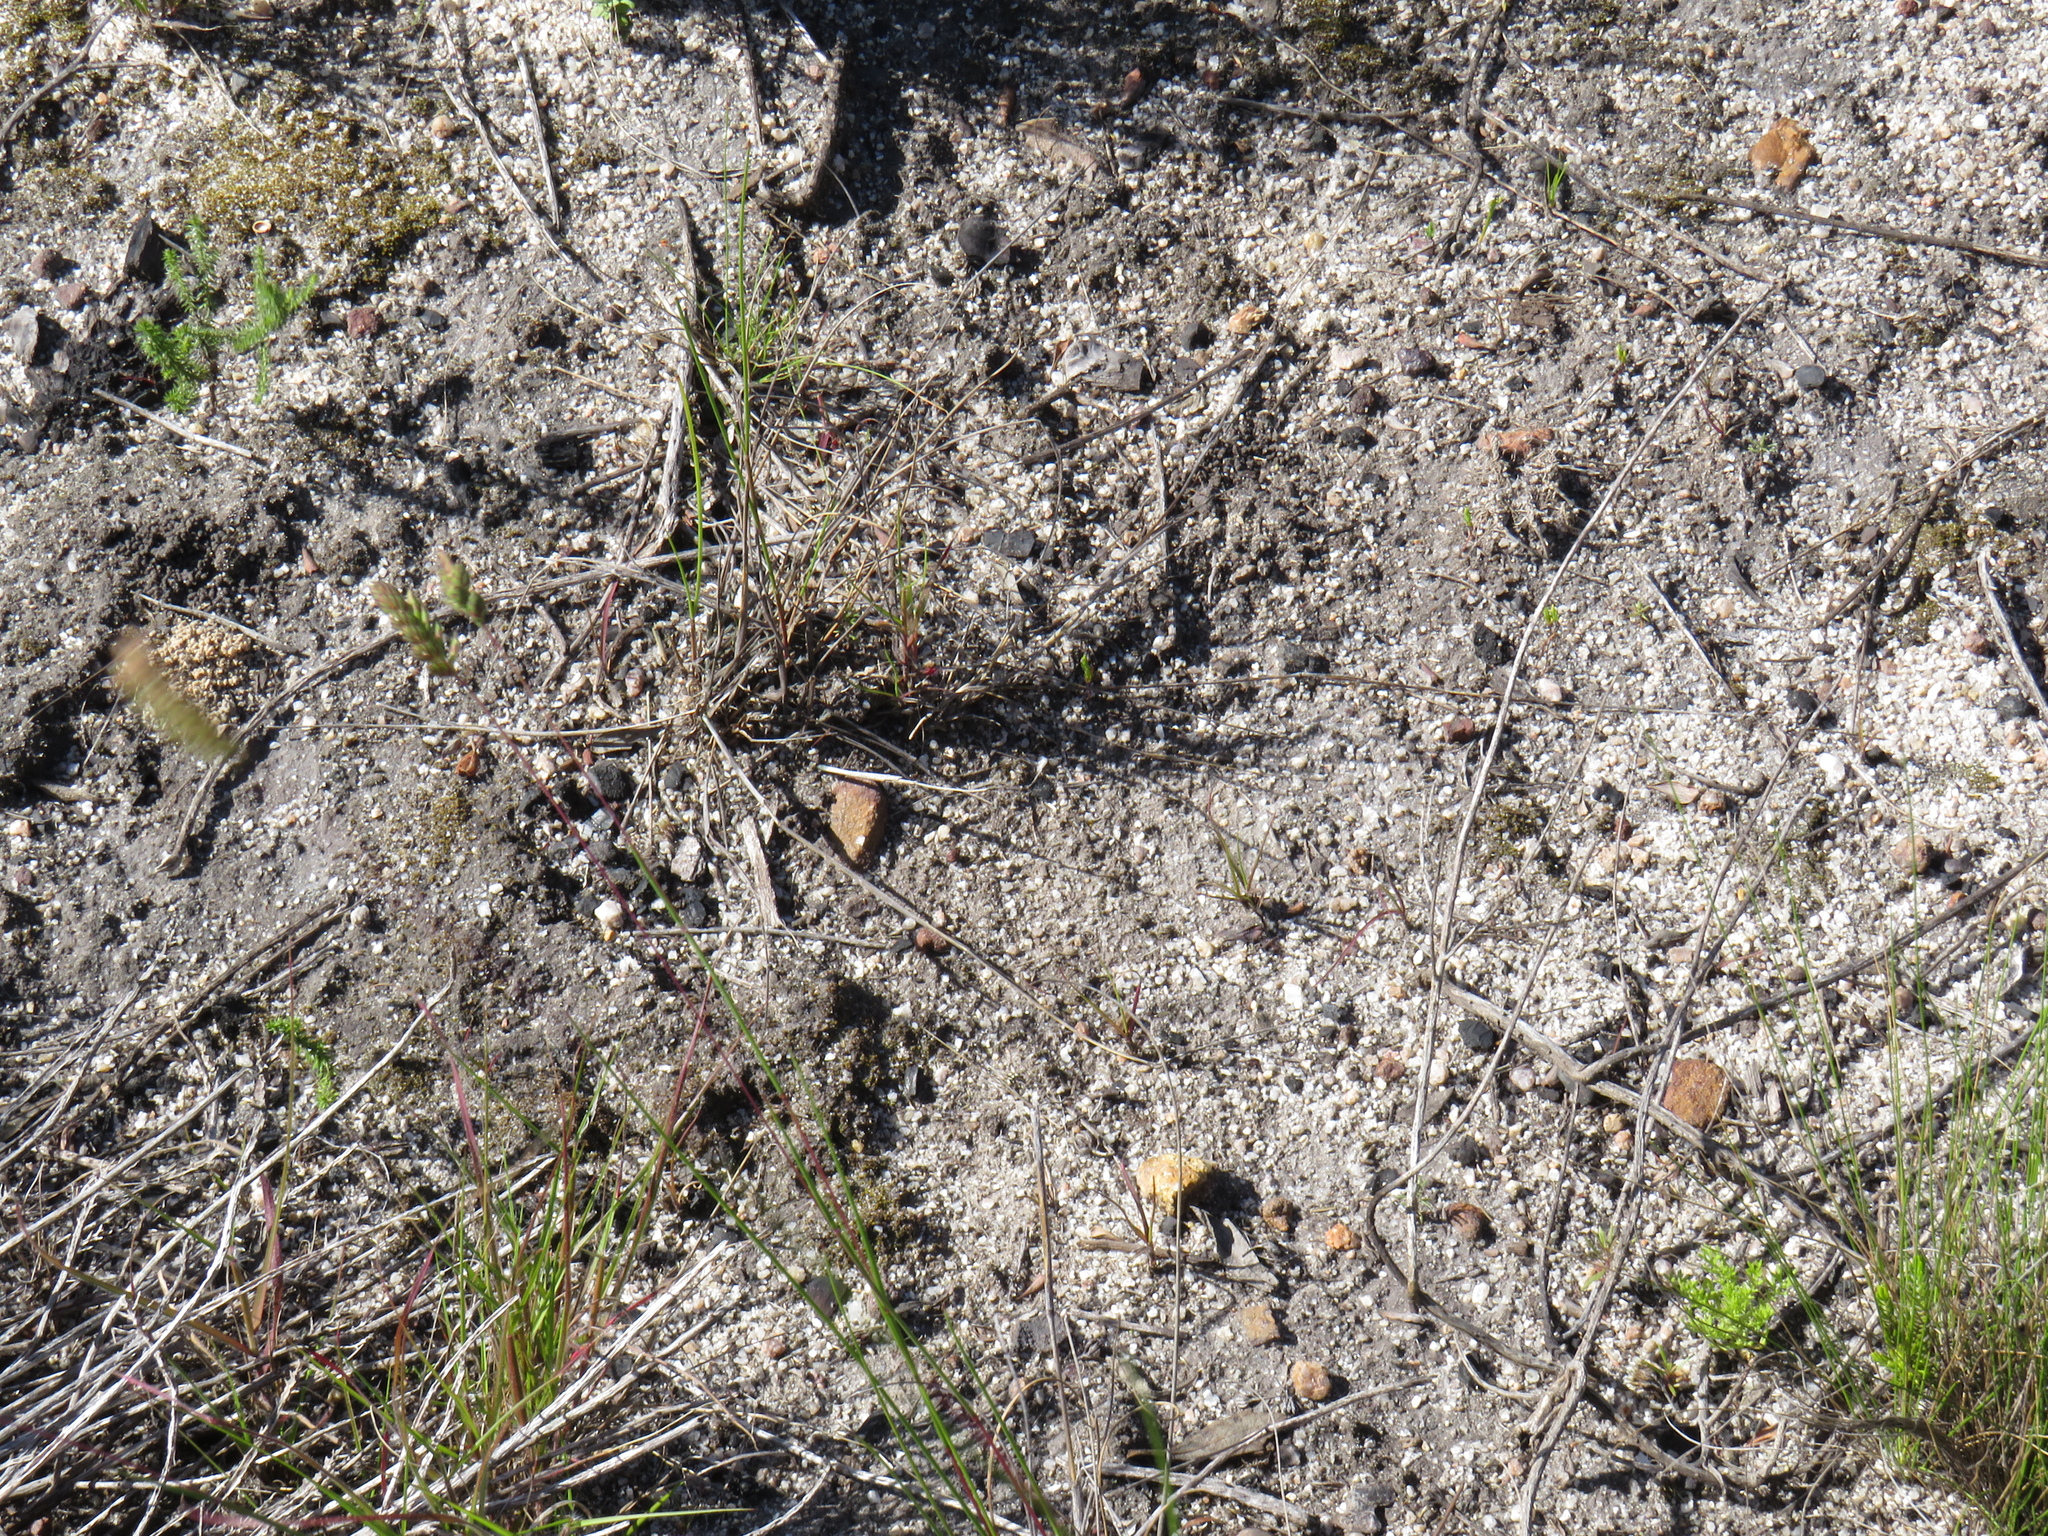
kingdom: Plantae
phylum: Tracheophyta
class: Liliopsida
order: Poales
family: Poaceae
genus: Tribolium
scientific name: Tribolium uniolae
